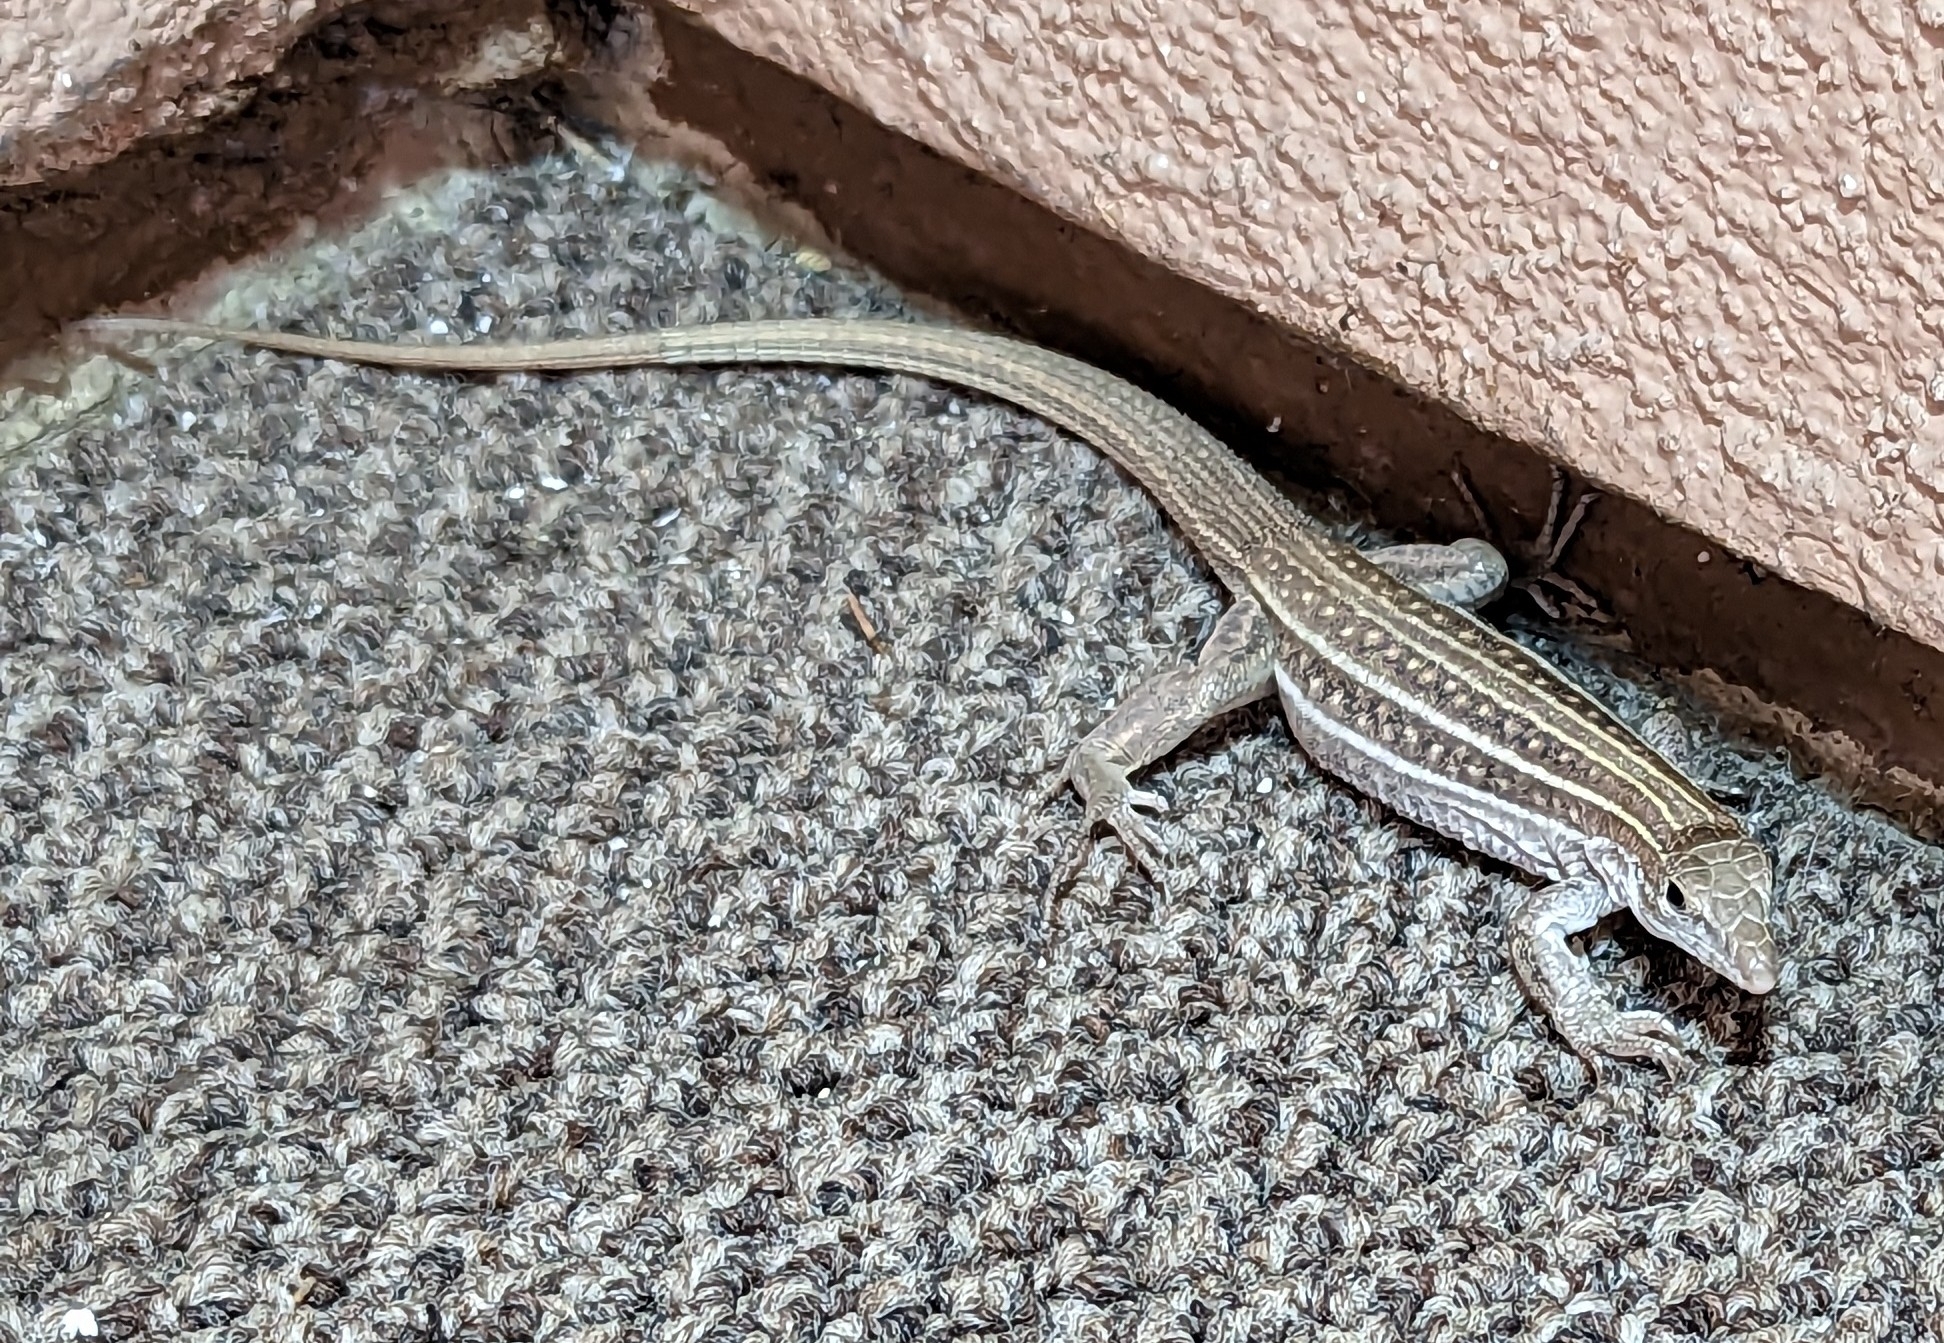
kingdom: Animalia
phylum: Chordata
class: Squamata
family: Teiidae
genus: Aspidoscelis
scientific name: Aspidoscelis sonorae
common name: Sonoran spotted whiptail
